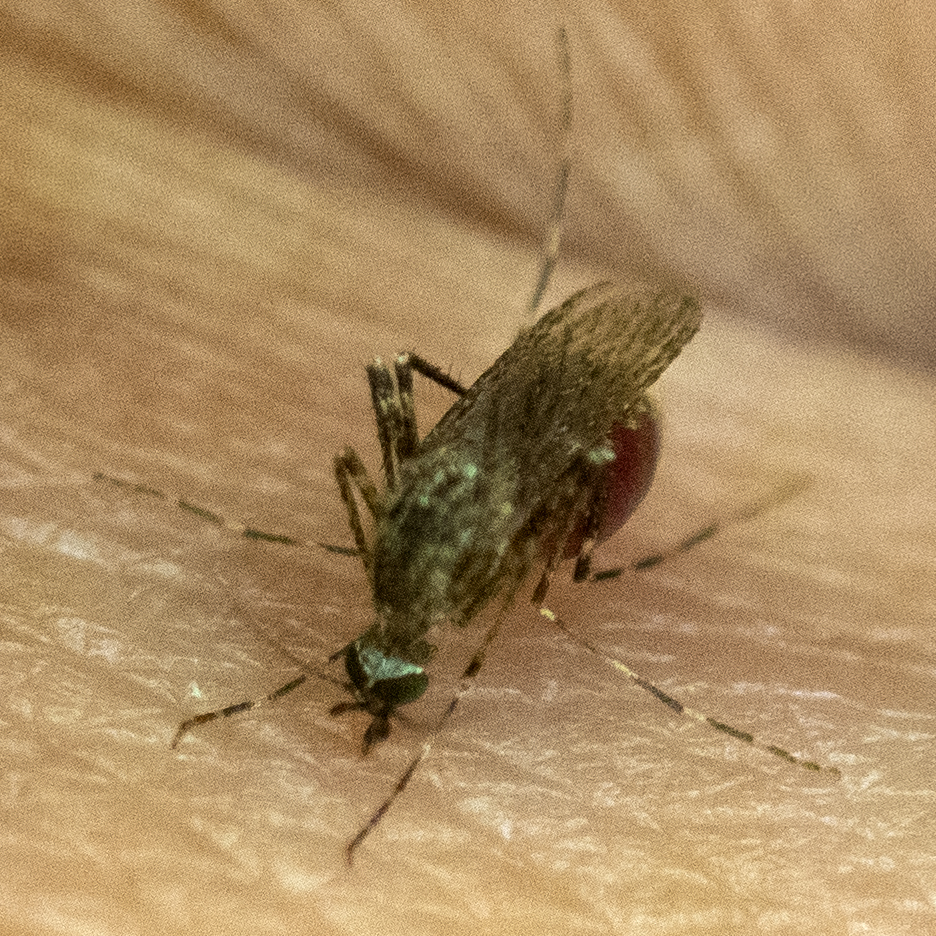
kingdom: Animalia
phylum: Arthropoda
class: Insecta
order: Diptera
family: Culicidae
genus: Coquillettidia
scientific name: Coquillettidia perturbans
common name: Cattail mosquito
